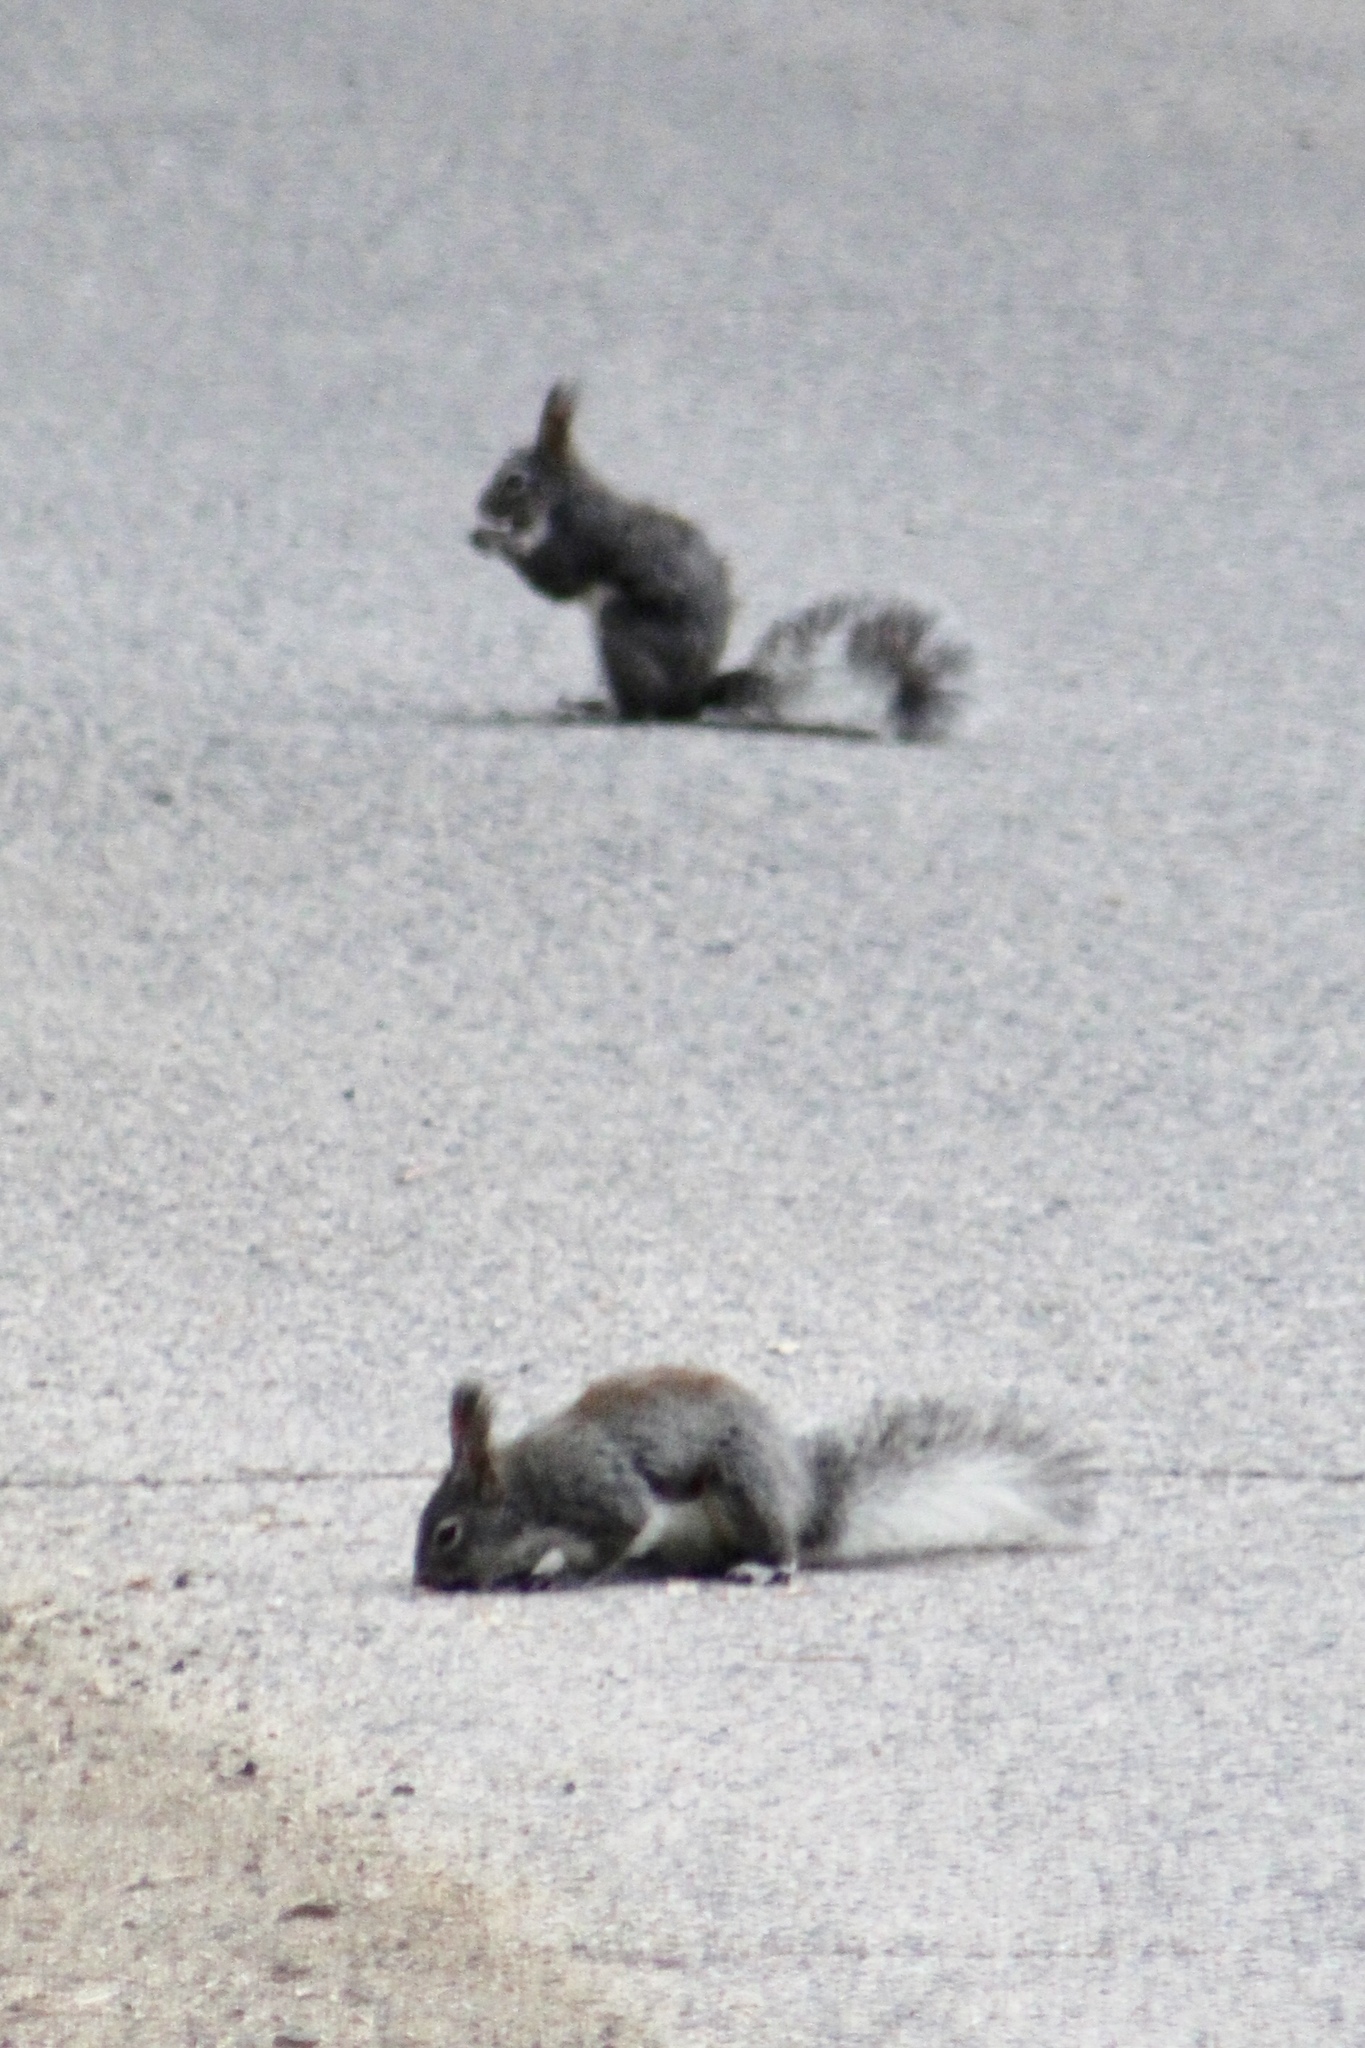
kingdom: Animalia
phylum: Chordata
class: Mammalia
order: Rodentia
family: Sciuridae
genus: Sciurus
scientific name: Sciurus aberti
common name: Abert's squirrel
